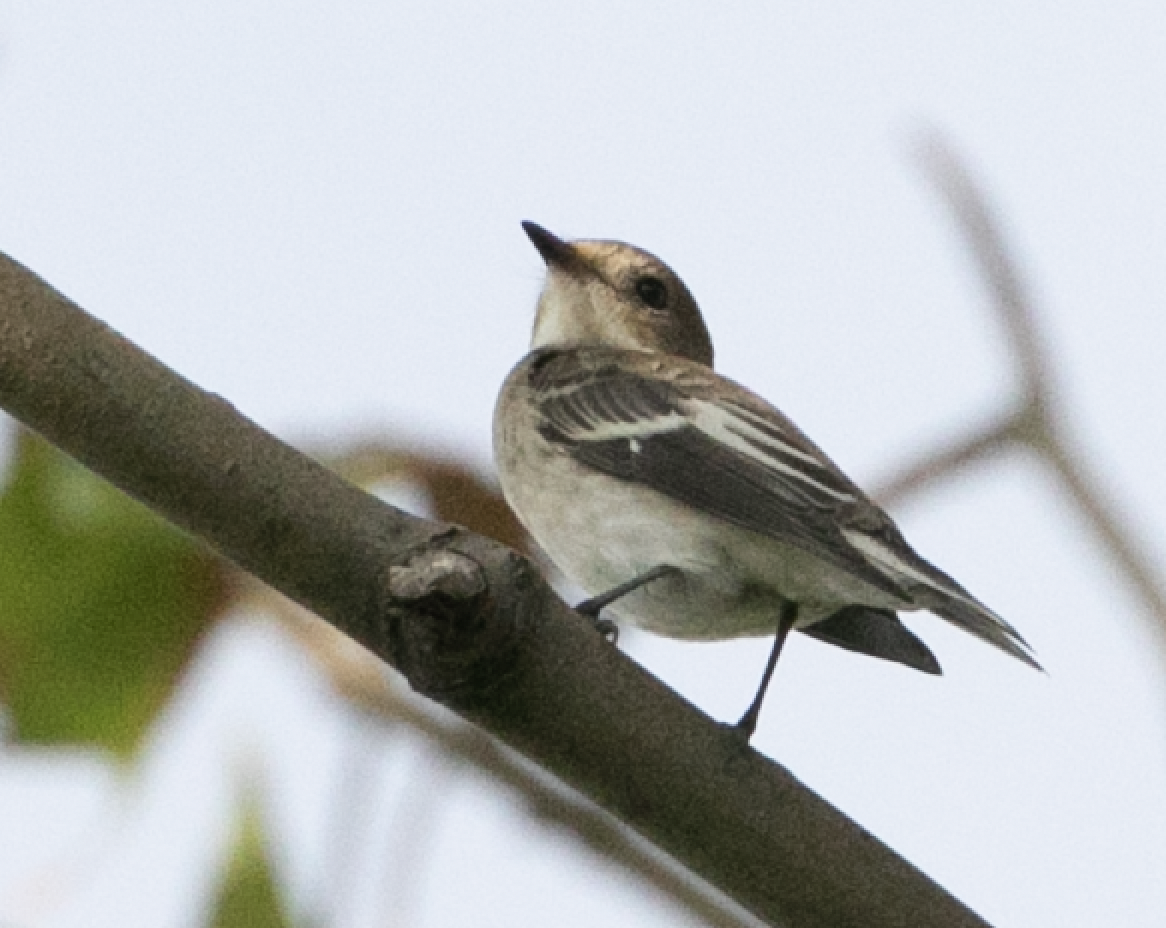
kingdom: Animalia
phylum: Chordata
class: Aves
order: Passeriformes
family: Muscicapidae
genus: Ficedula
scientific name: Ficedula hypoleuca
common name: European pied flycatcher
